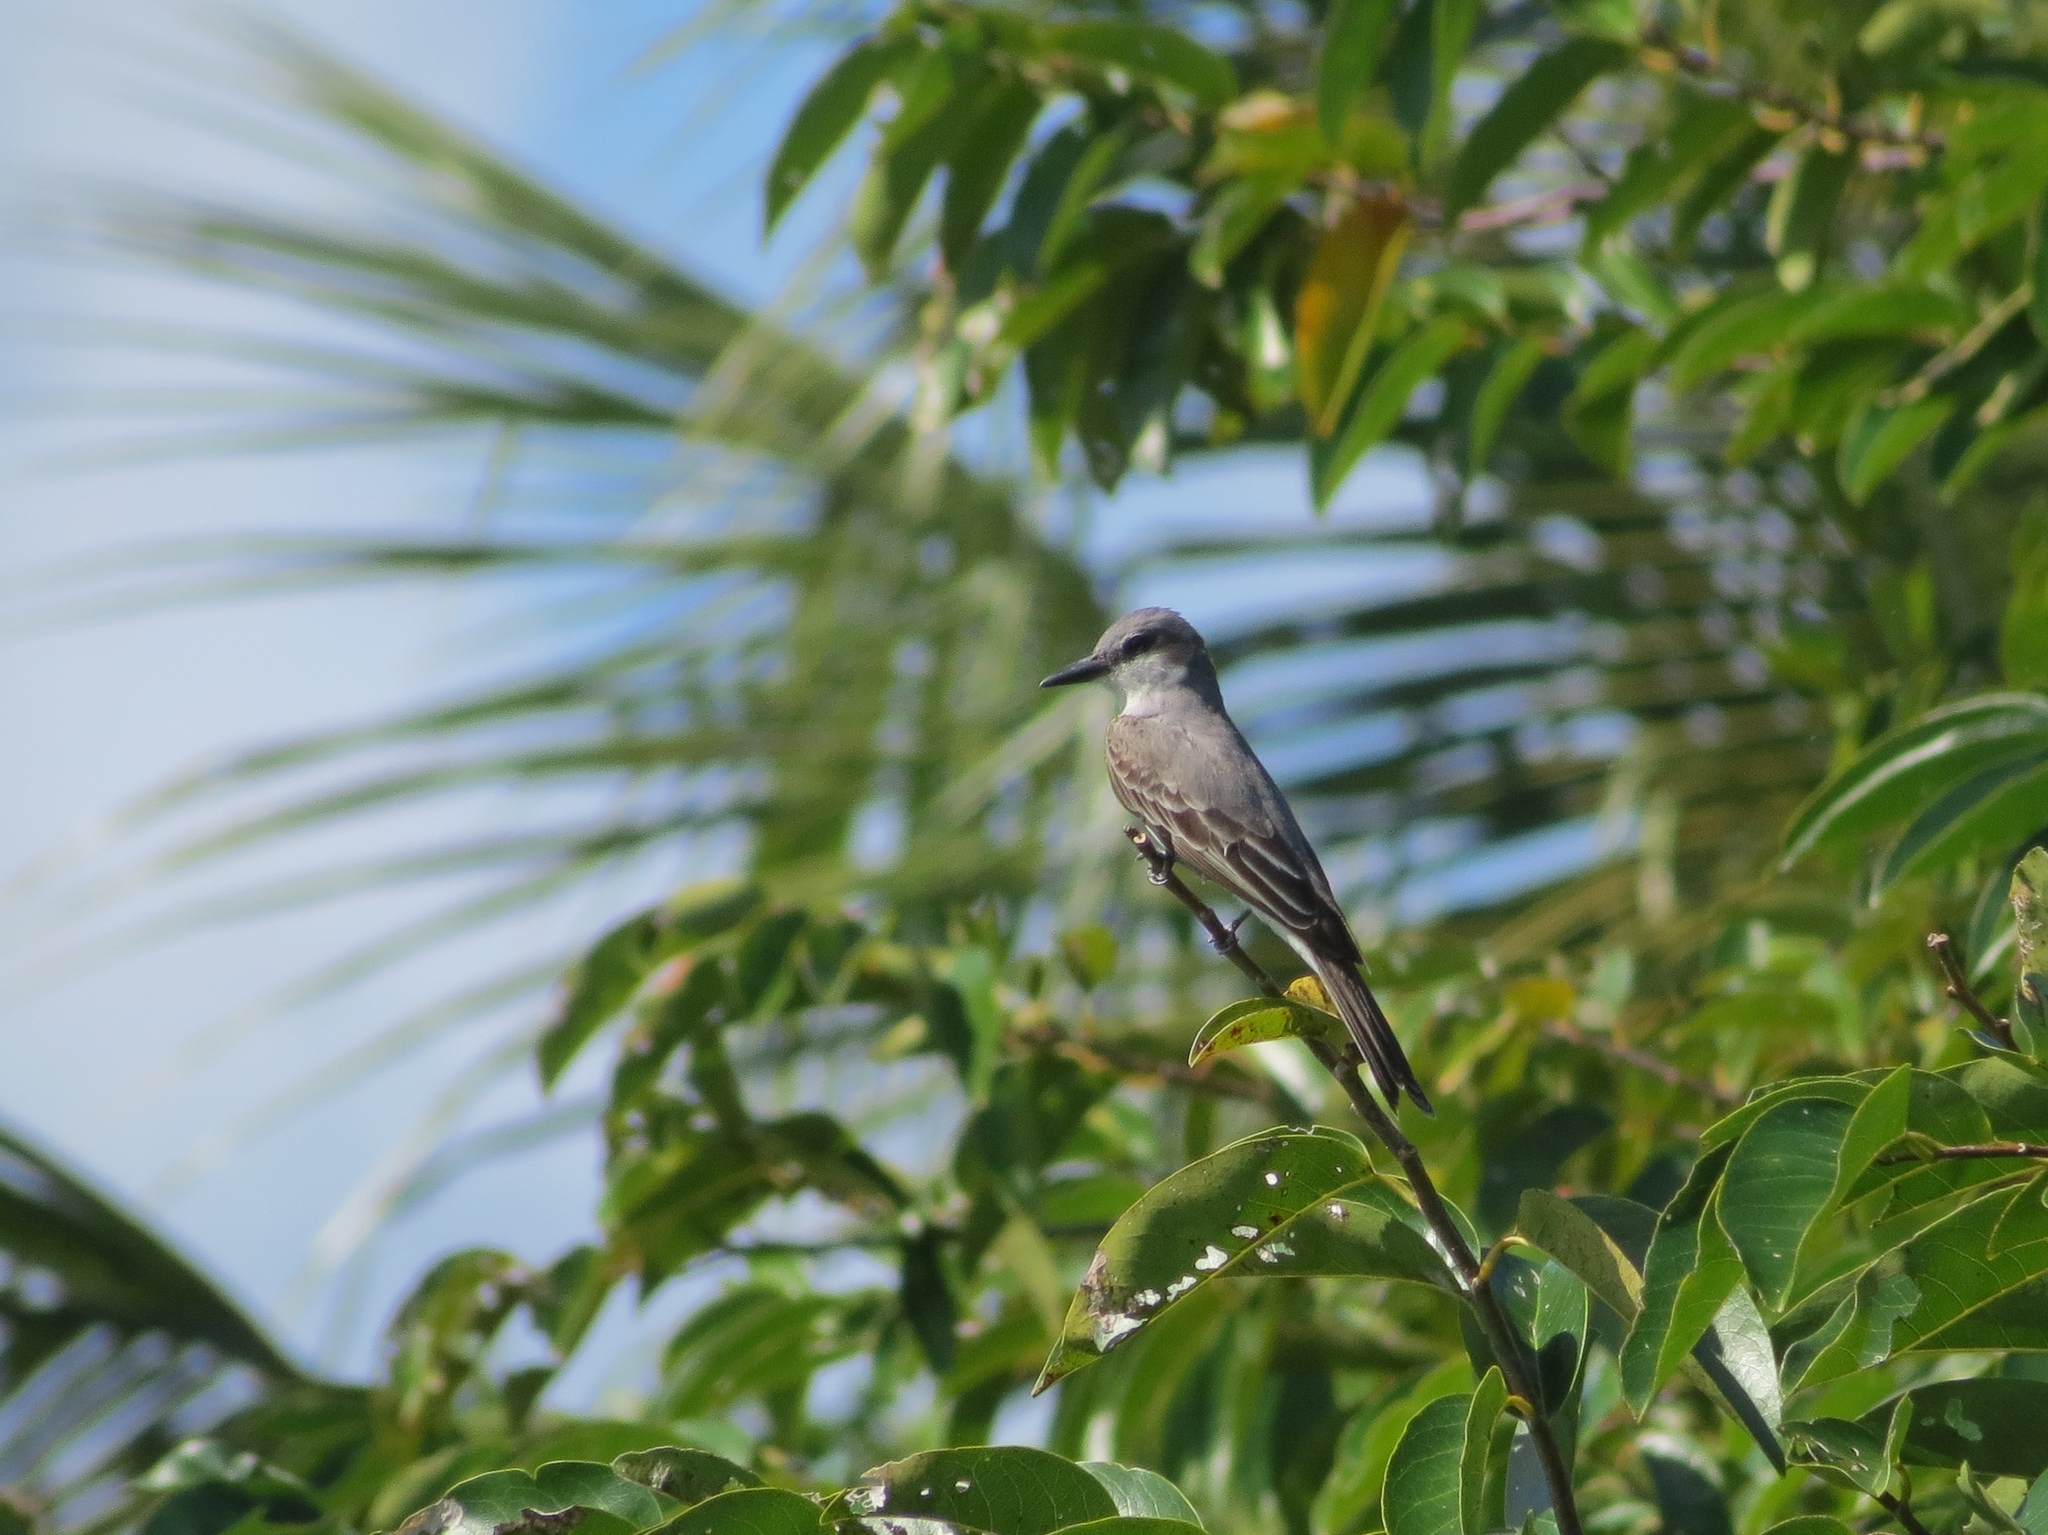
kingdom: Animalia
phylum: Chordata
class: Aves
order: Passeriformes
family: Tyrannidae
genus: Tyrannus
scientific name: Tyrannus dominicensis
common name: Gray kingbird
